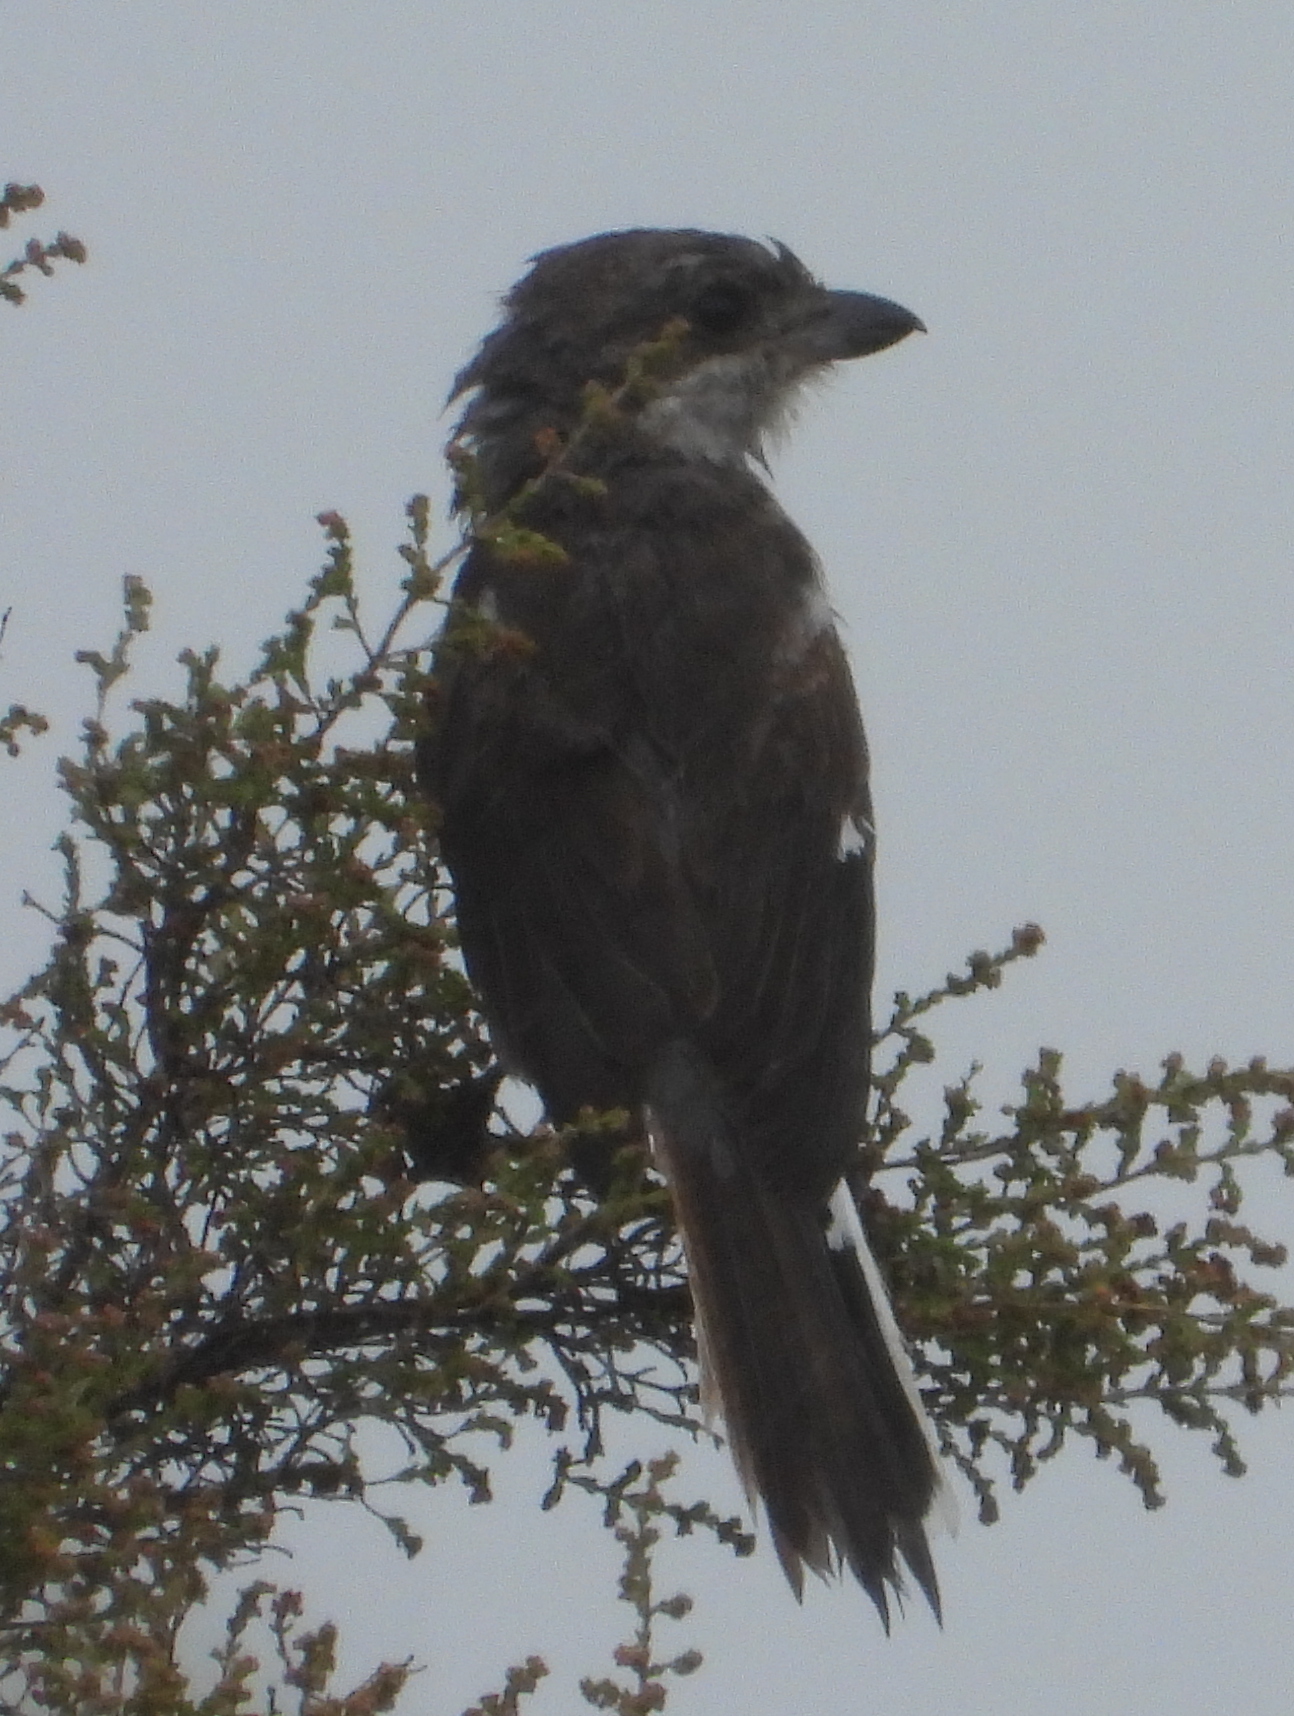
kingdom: Animalia
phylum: Chordata
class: Aves
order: Passeriformes
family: Laniidae
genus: Lanius
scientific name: Lanius collaris
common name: Southern fiscal
